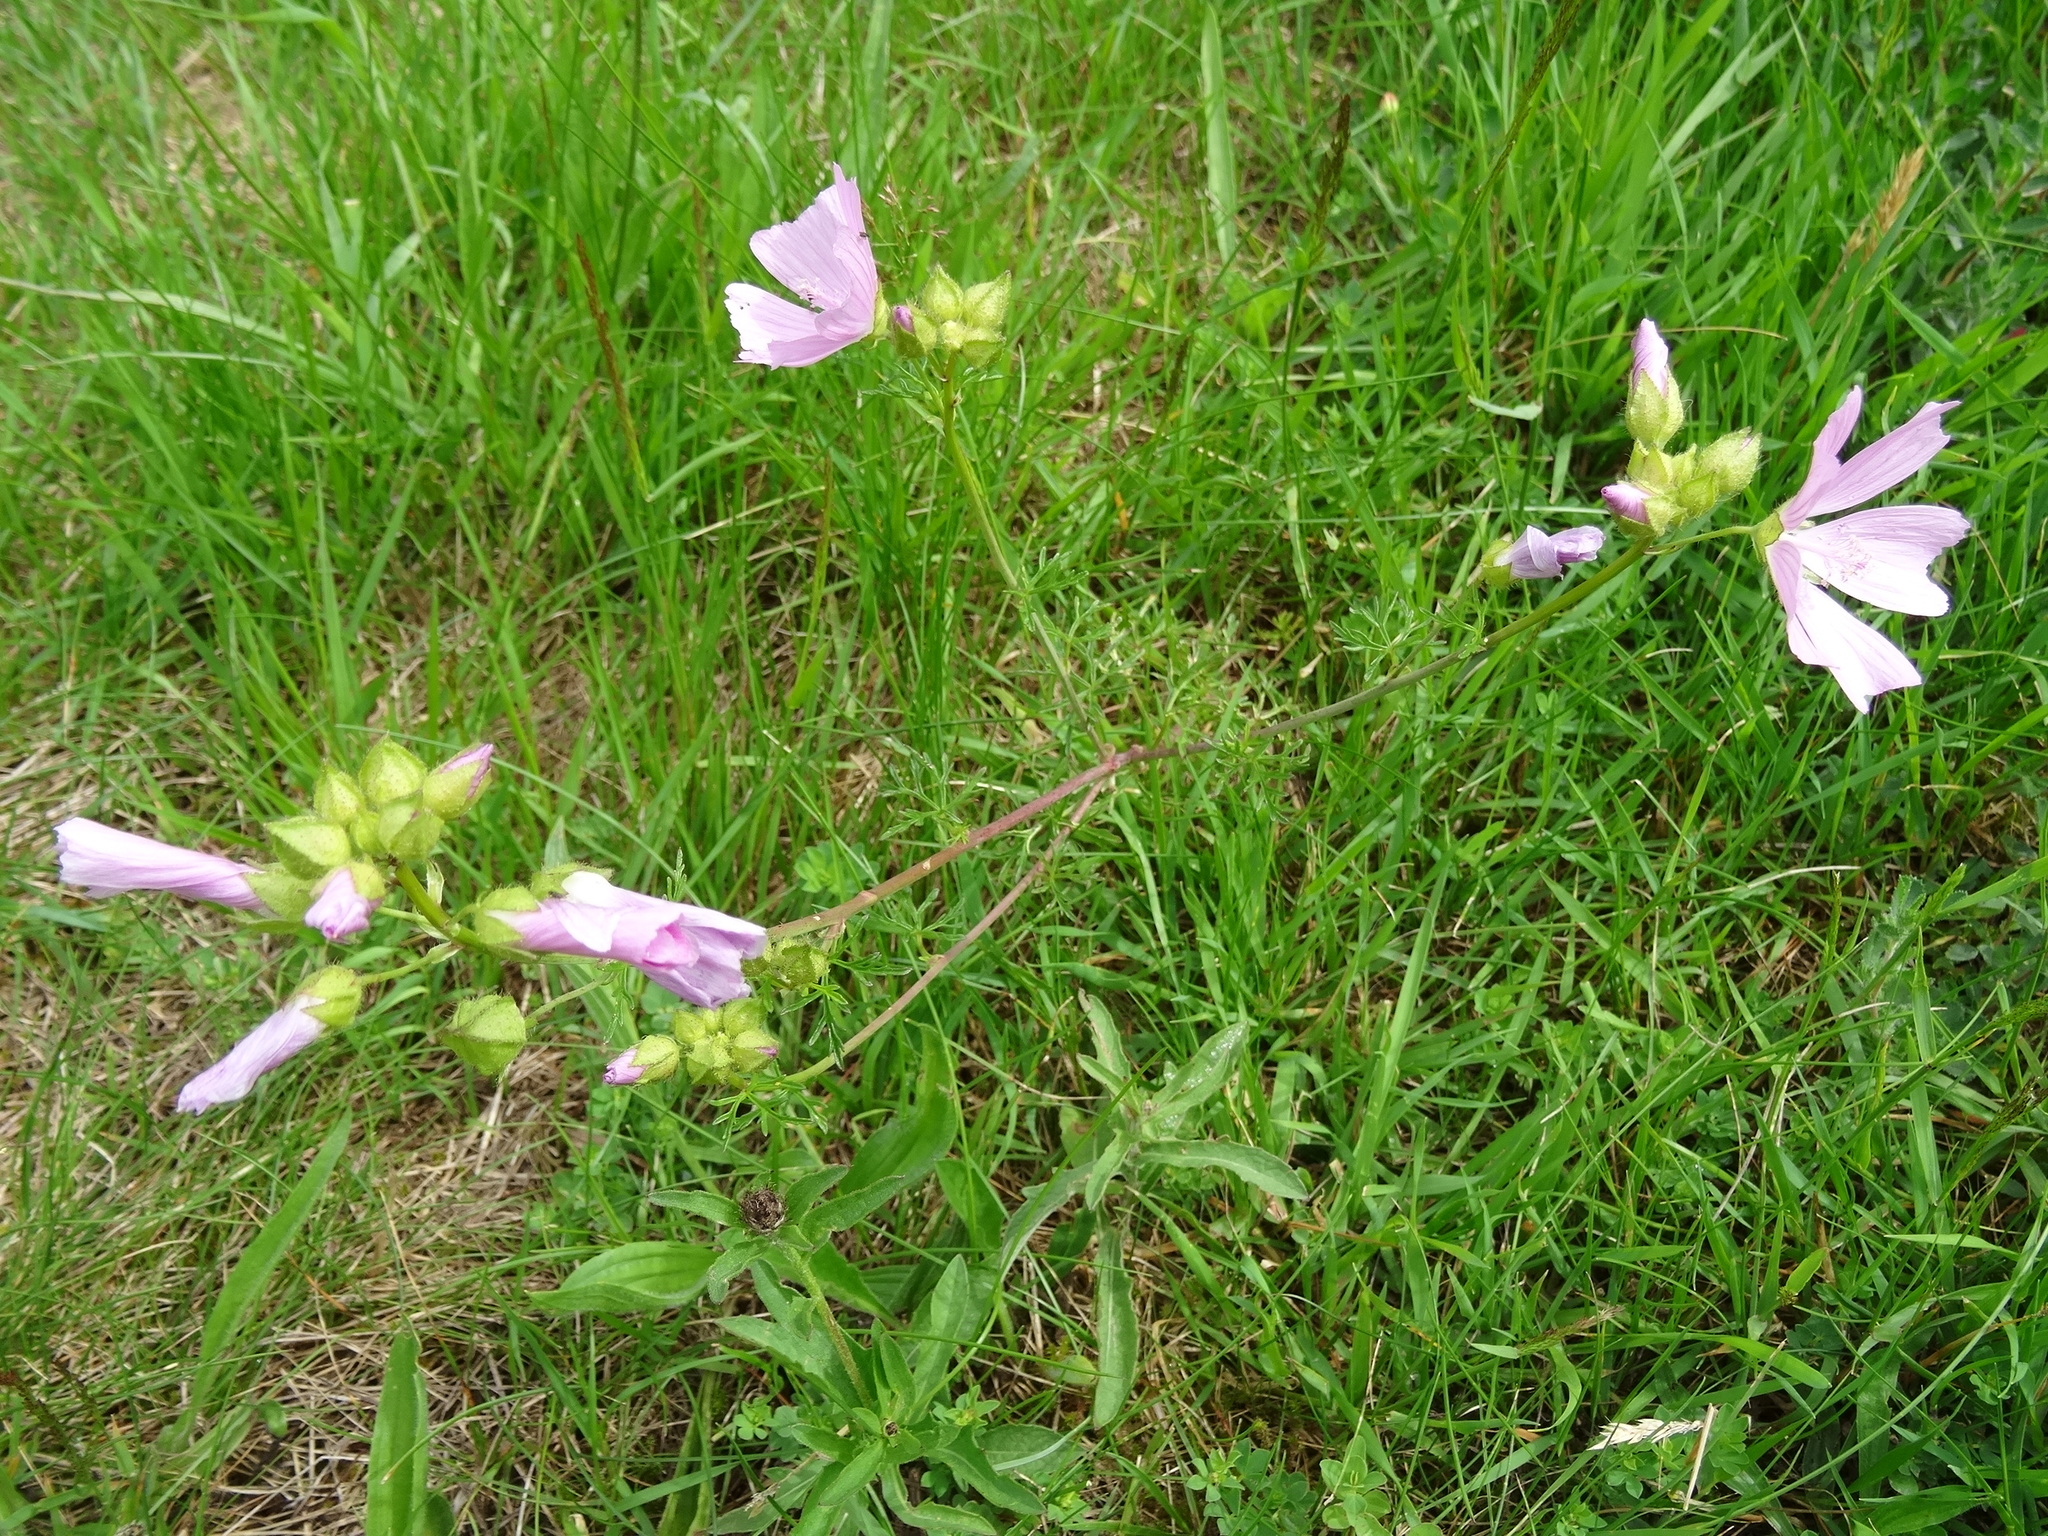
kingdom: Plantae
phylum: Tracheophyta
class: Magnoliopsida
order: Malvales
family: Malvaceae
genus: Malva
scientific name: Malva moschata
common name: Musk mallow
